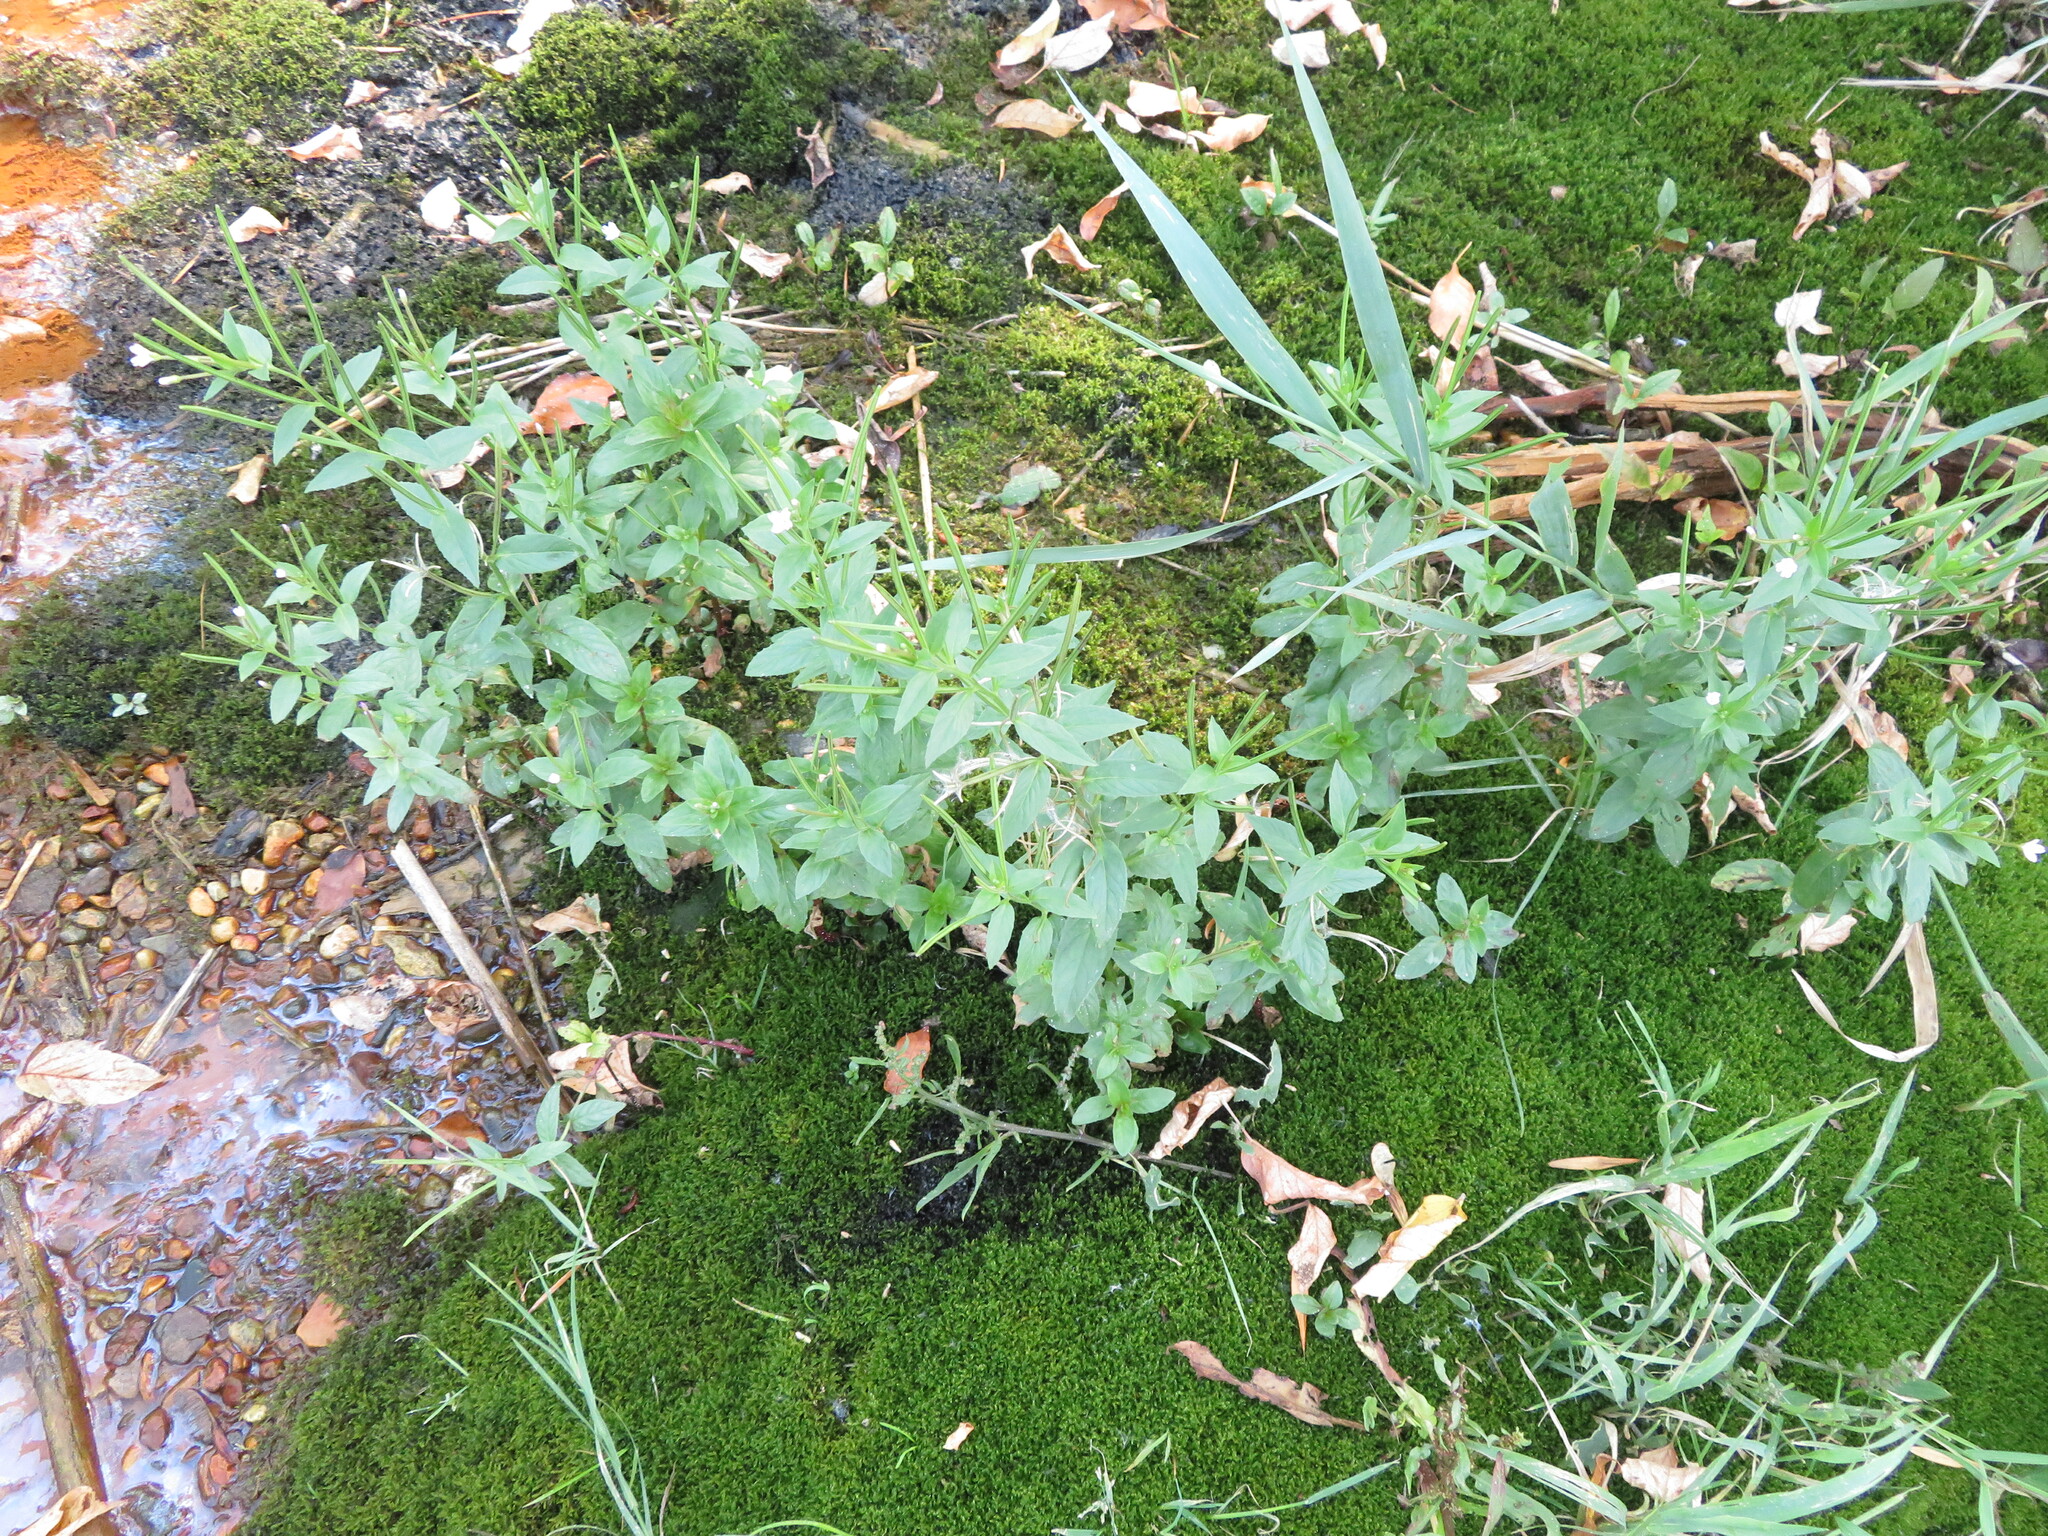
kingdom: Plantae
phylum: Tracheophyta
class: Magnoliopsida
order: Myrtales
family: Onagraceae
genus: Epilobium
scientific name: Epilobium ciliatum
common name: American willowherb
